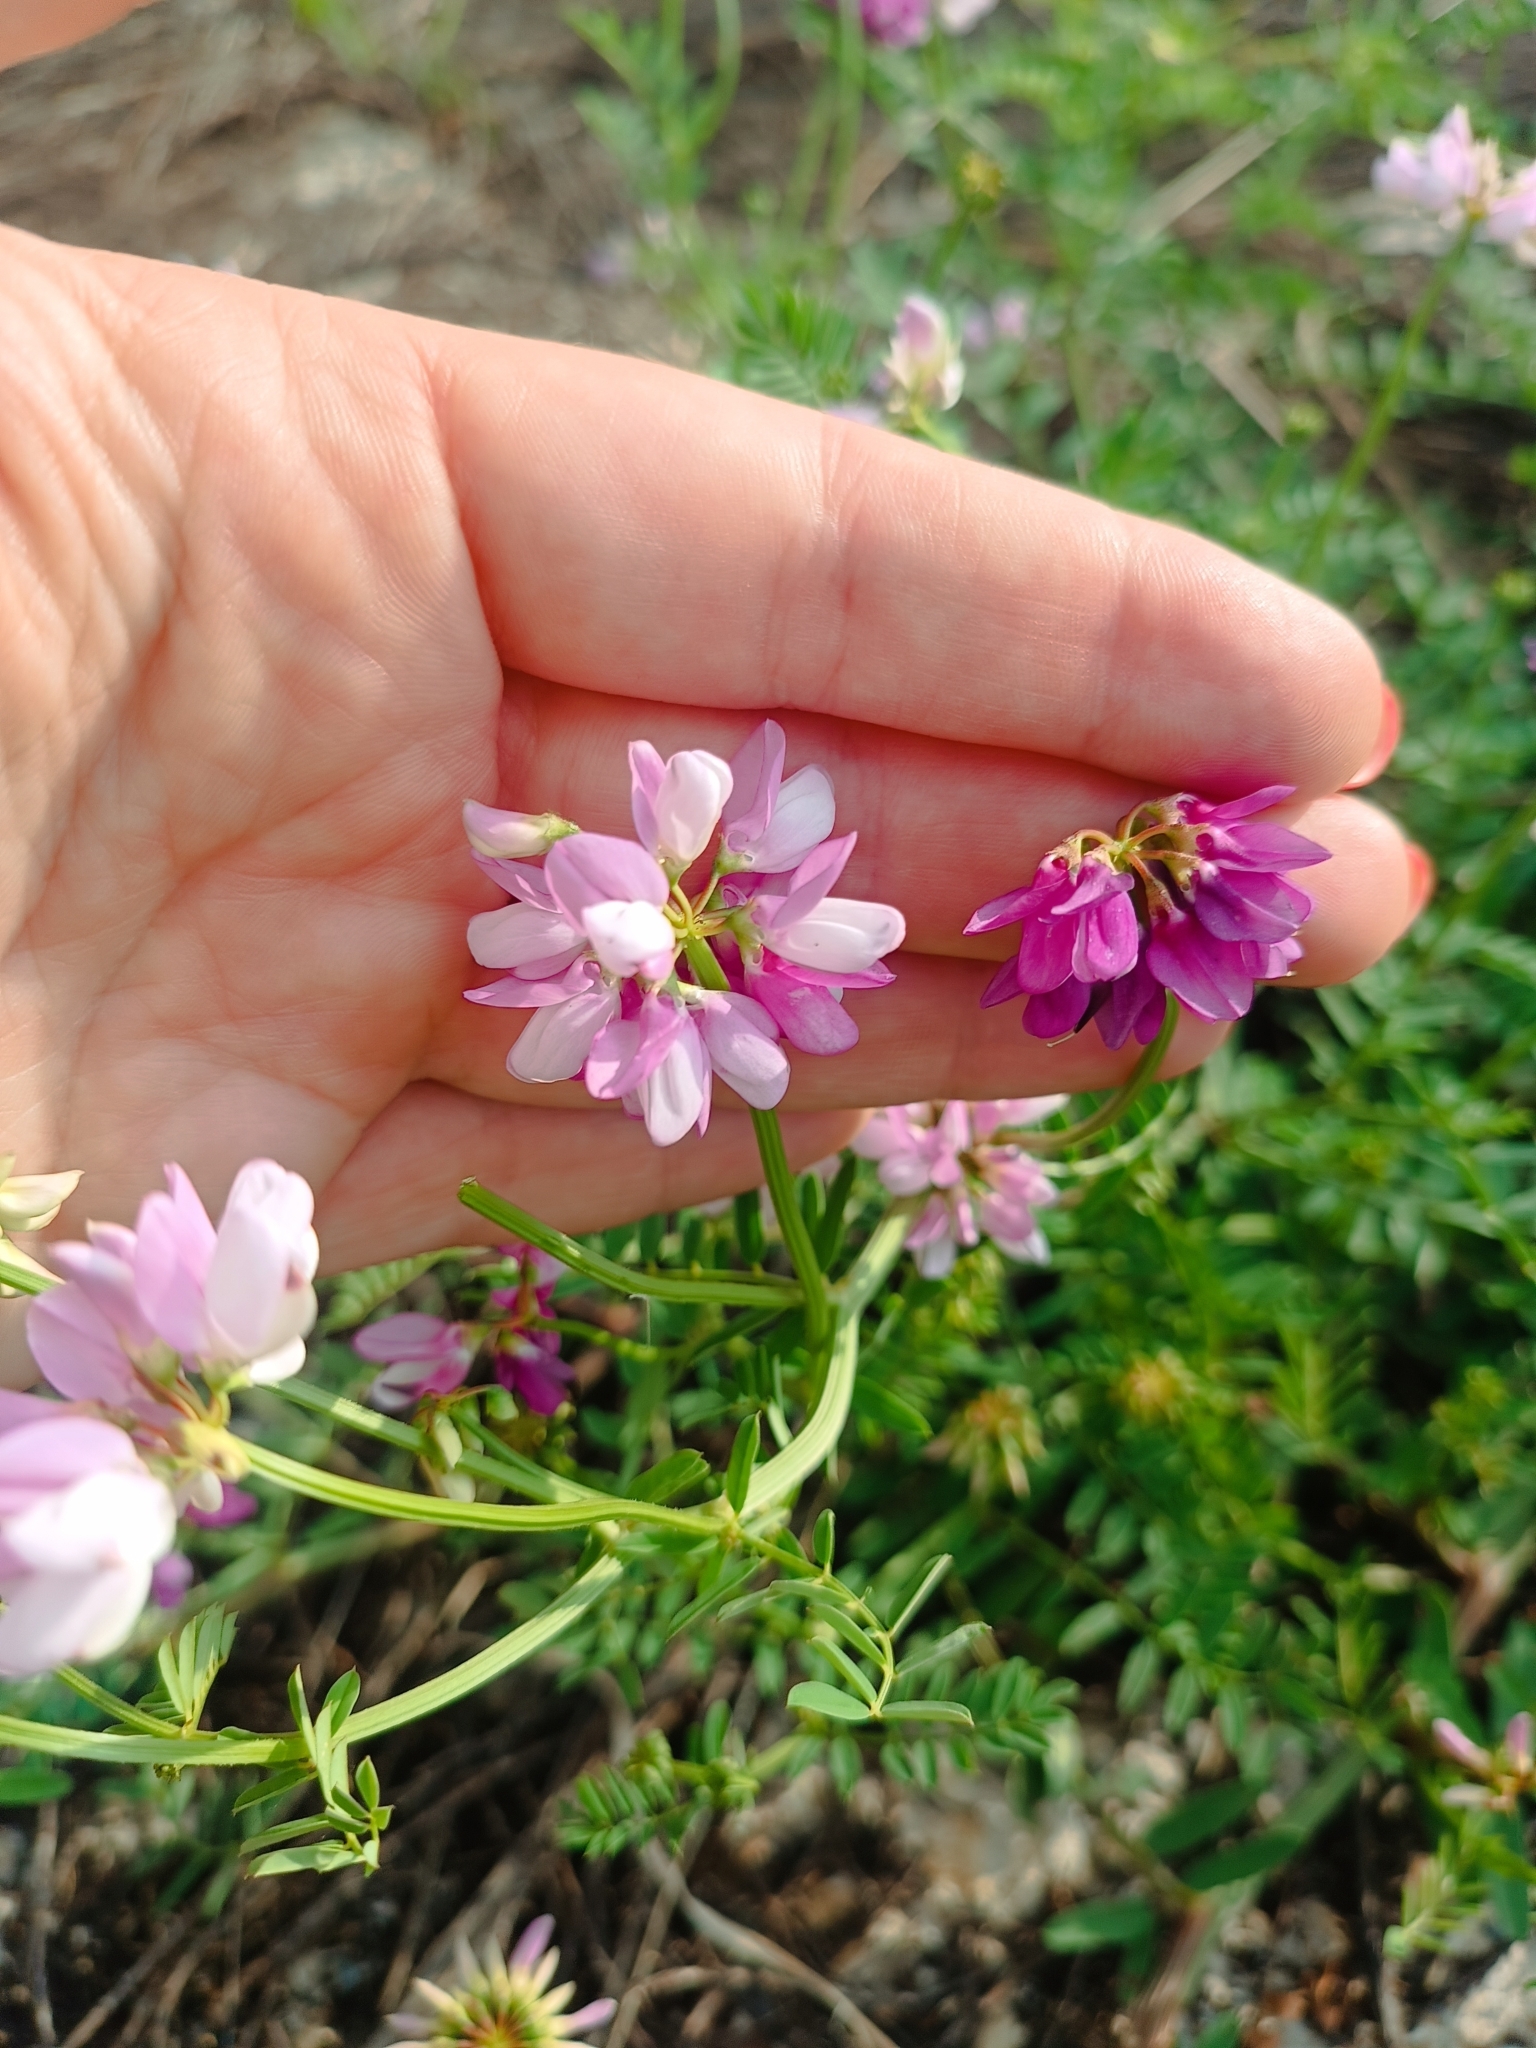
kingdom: Plantae
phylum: Tracheophyta
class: Magnoliopsida
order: Fabales
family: Fabaceae
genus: Coronilla
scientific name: Coronilla varia
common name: Crownvetch
